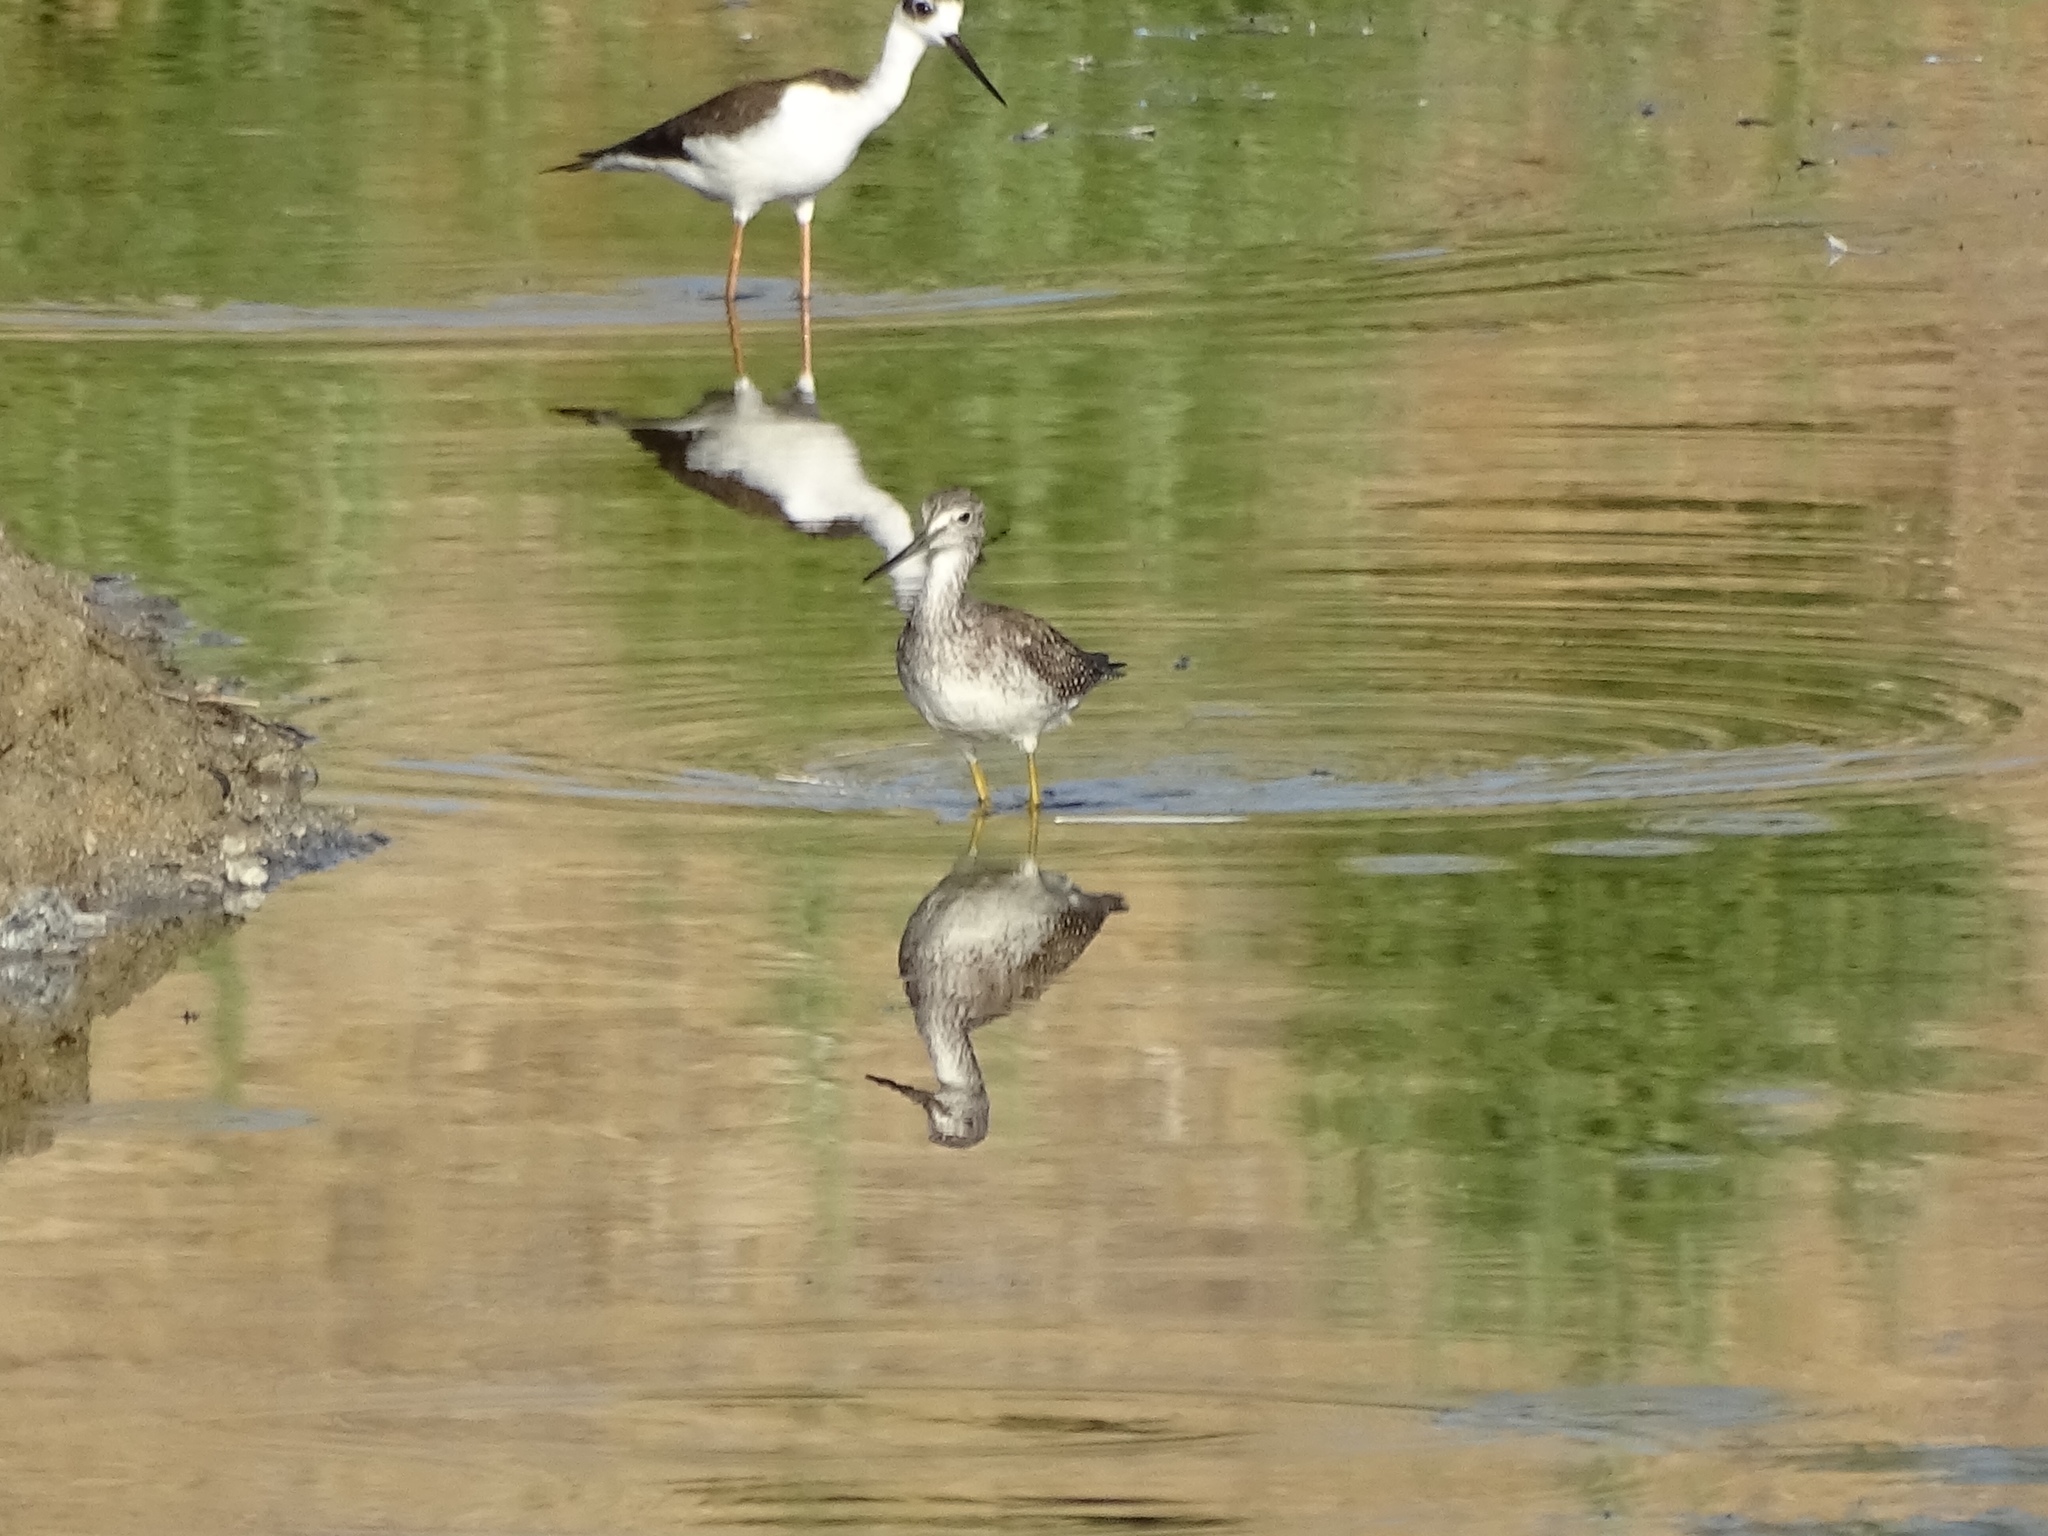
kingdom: Animalia
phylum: Chordata
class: Aves
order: Charadriiformes
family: Recurvirostridae
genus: Himantopus
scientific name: Himantopus mexicanus
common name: Black-necked stilt
